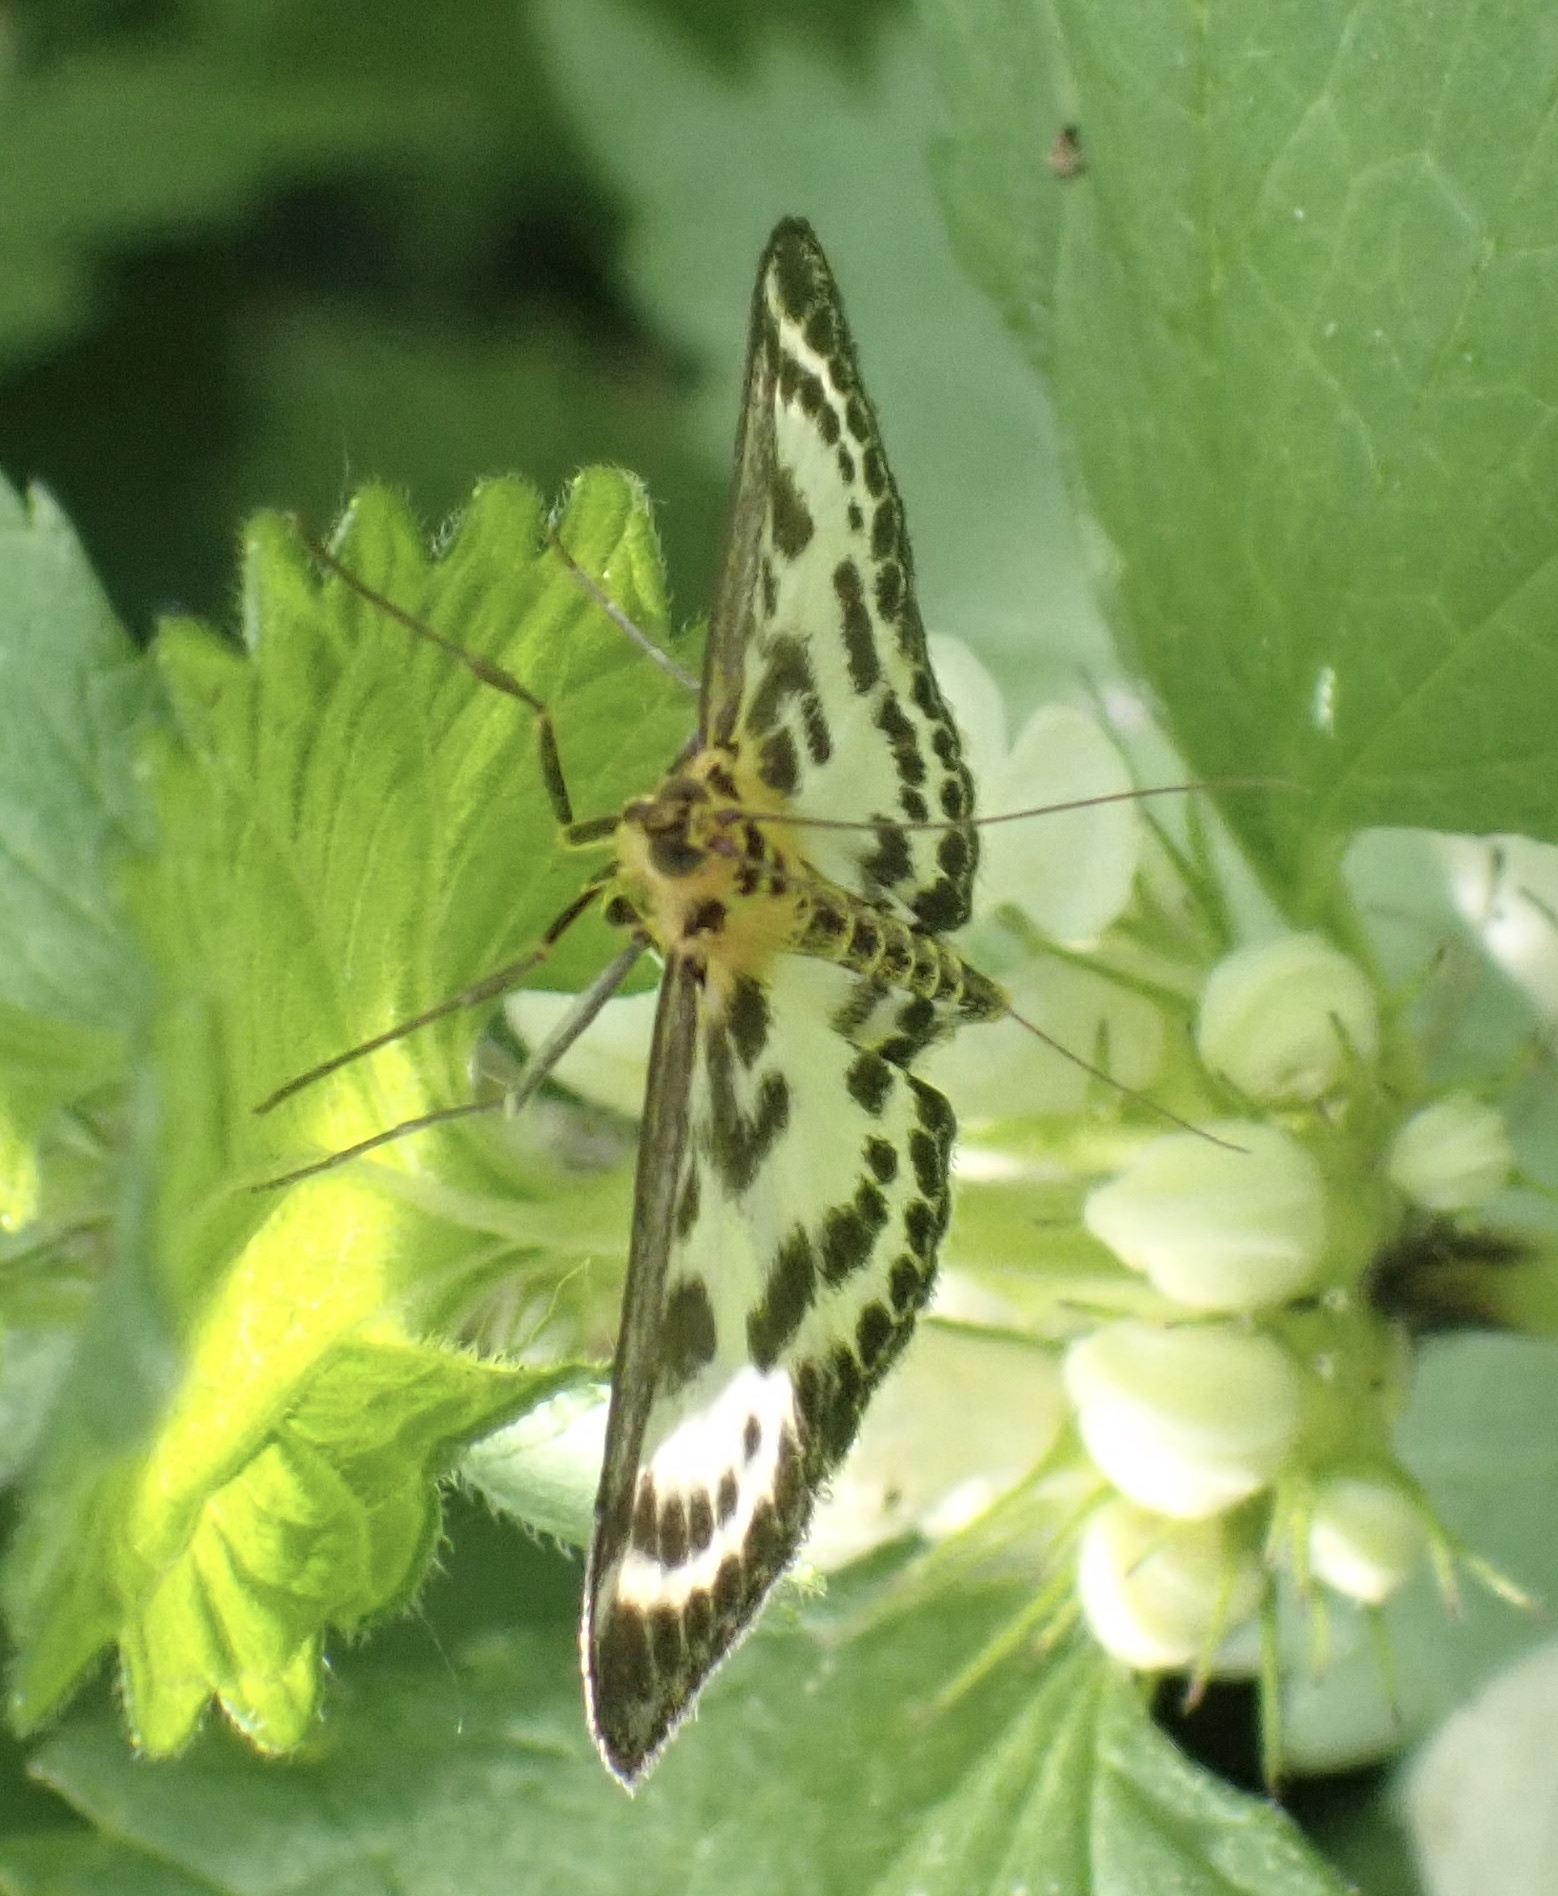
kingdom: Animalia
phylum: Arthropoda
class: Insecta
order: Lepidoptera
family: Crambidae
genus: Anania
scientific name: Anania hortulata
